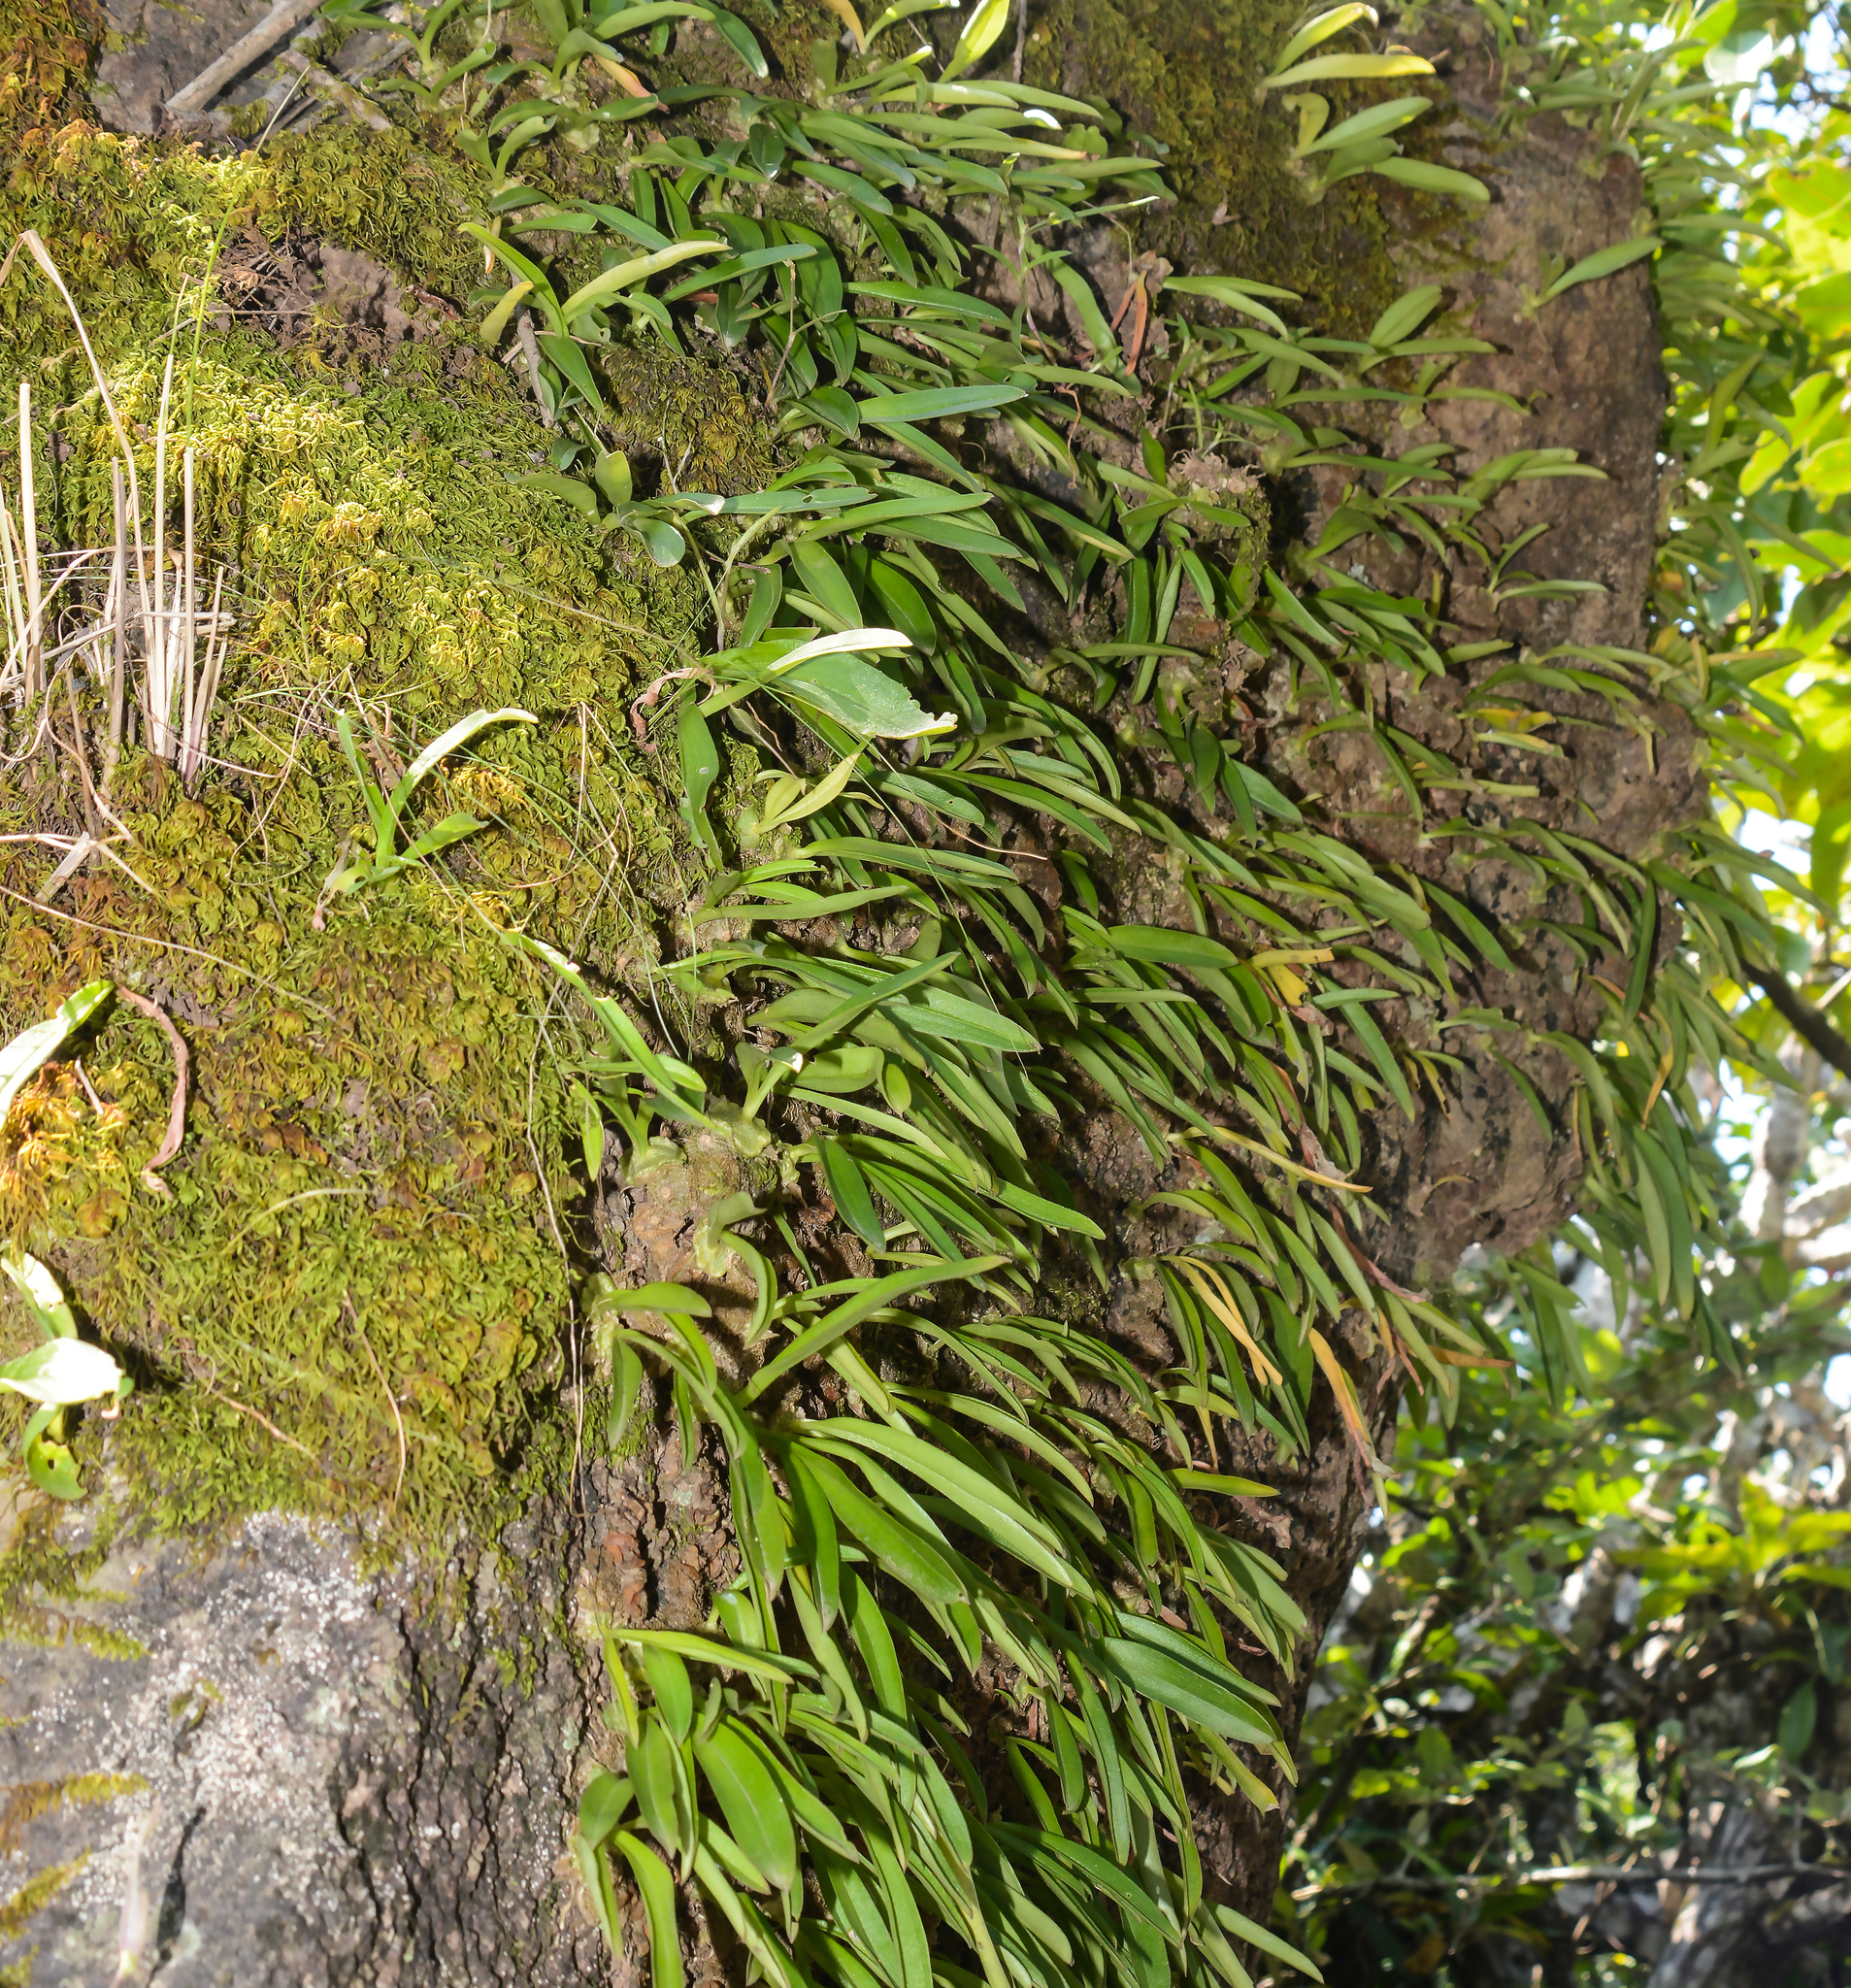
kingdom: Plantae
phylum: Tracheophyta
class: Liliopsida
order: Asparagales
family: Orchidaceae
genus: Porpax
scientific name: Porpax braccata
